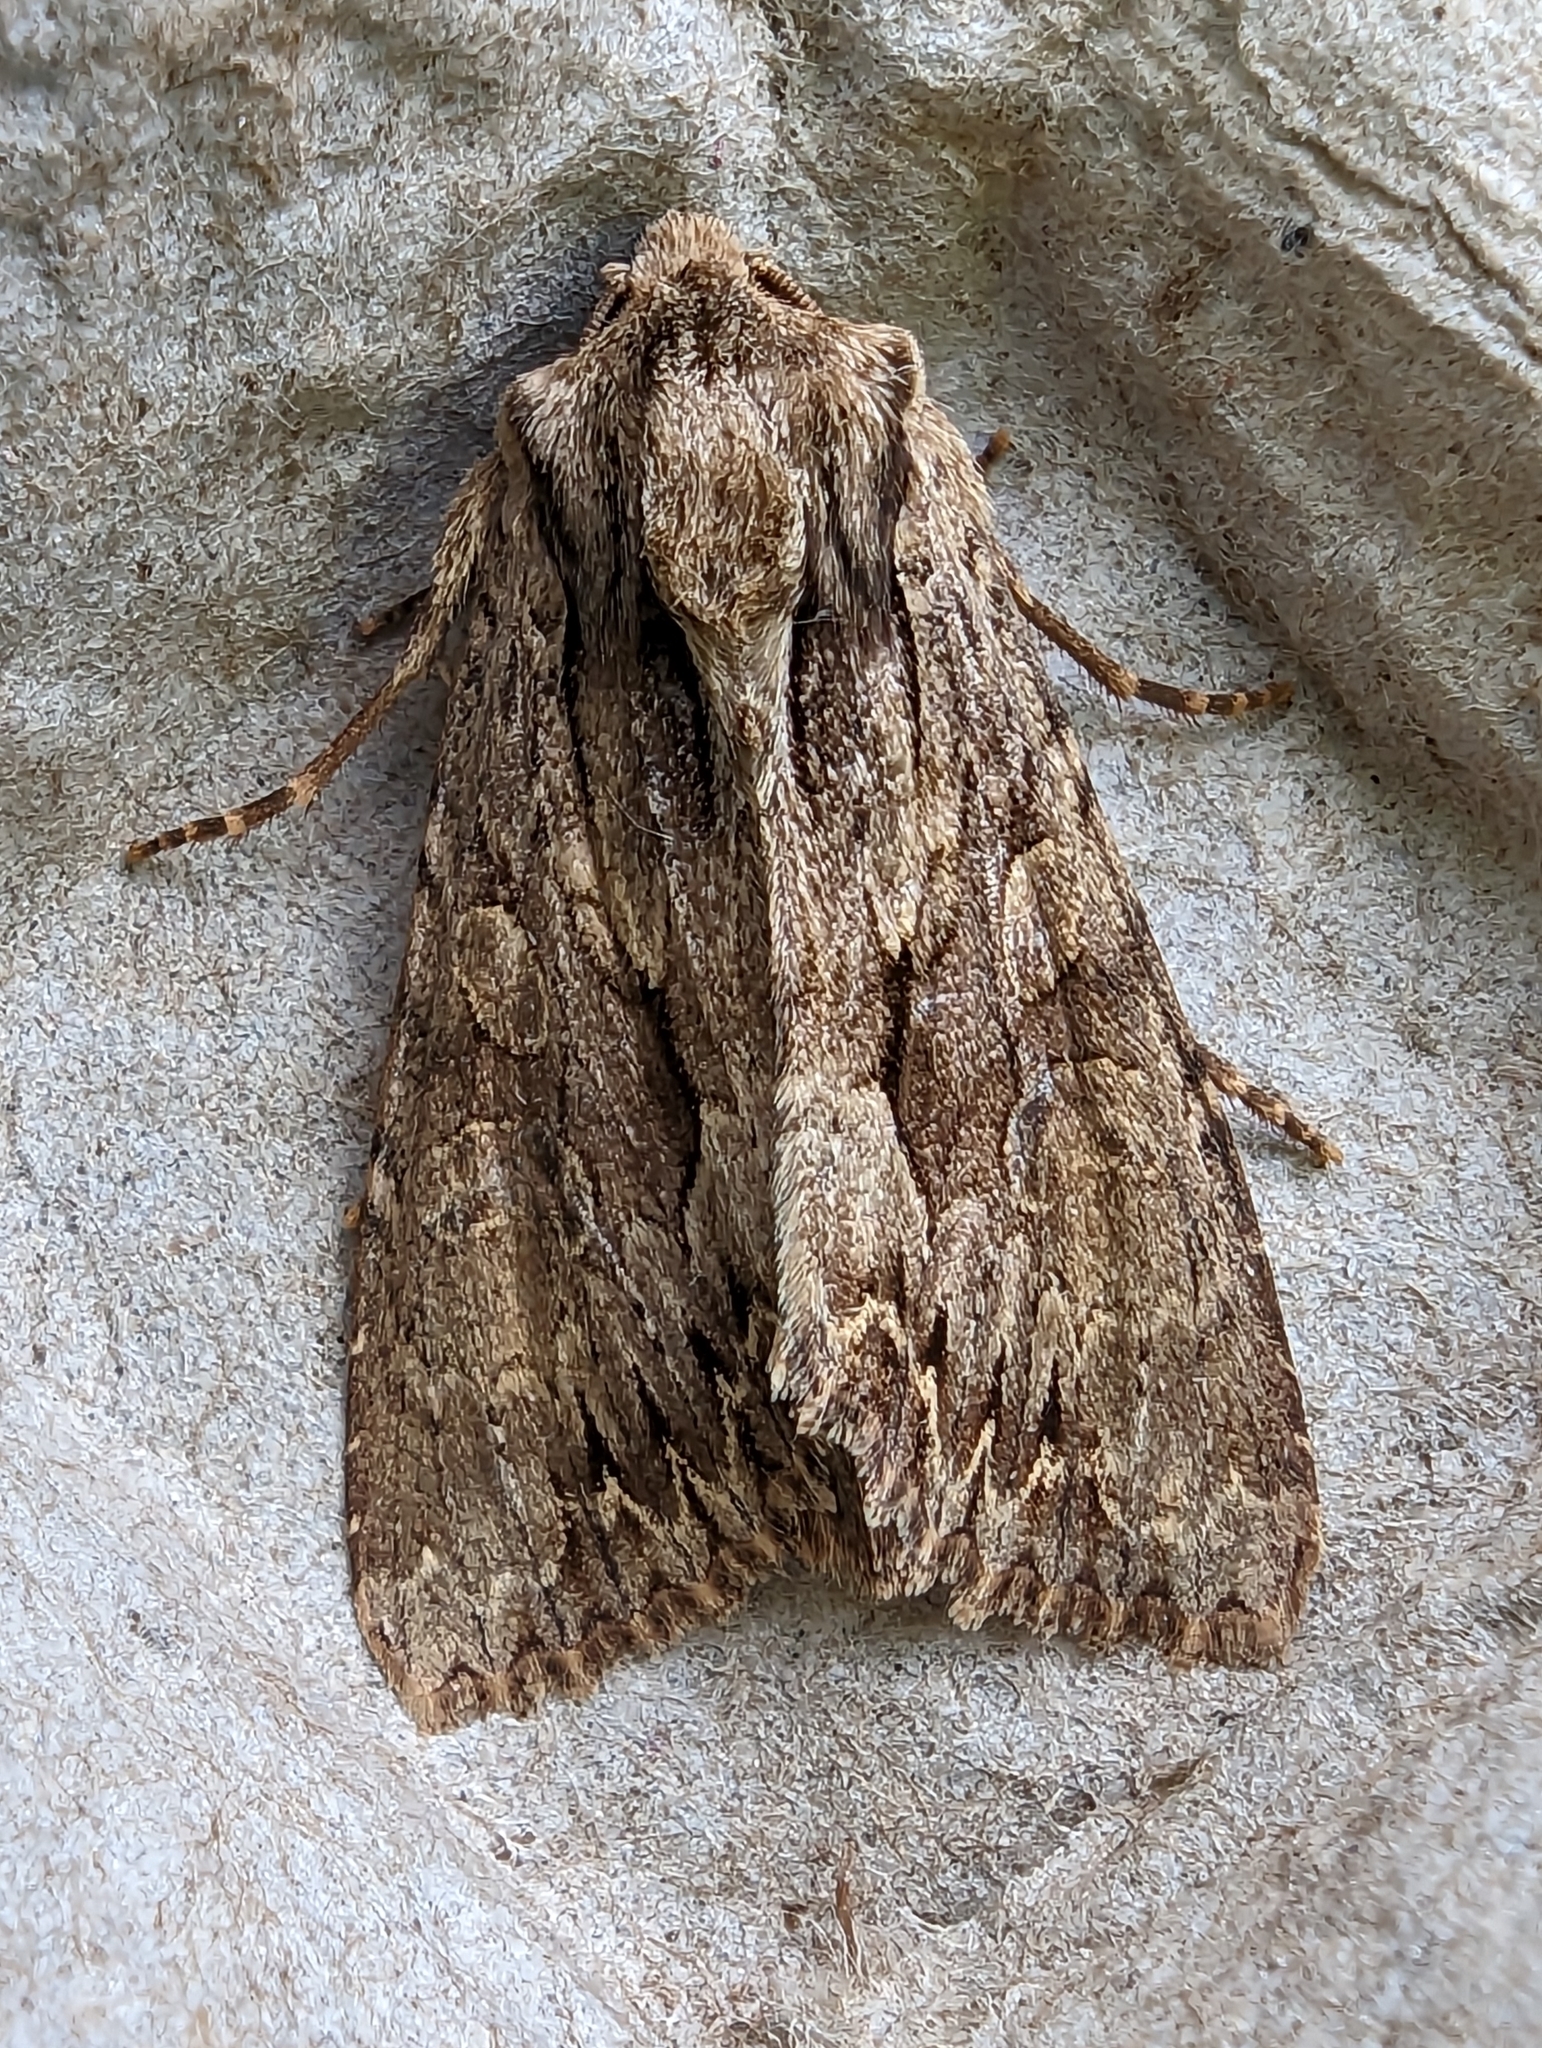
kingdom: Animalia
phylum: Arthropoda
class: Insecta
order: Lepidoptera
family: Noctuidae
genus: Apamea
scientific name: Apamea monoglypha
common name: Dark arches
